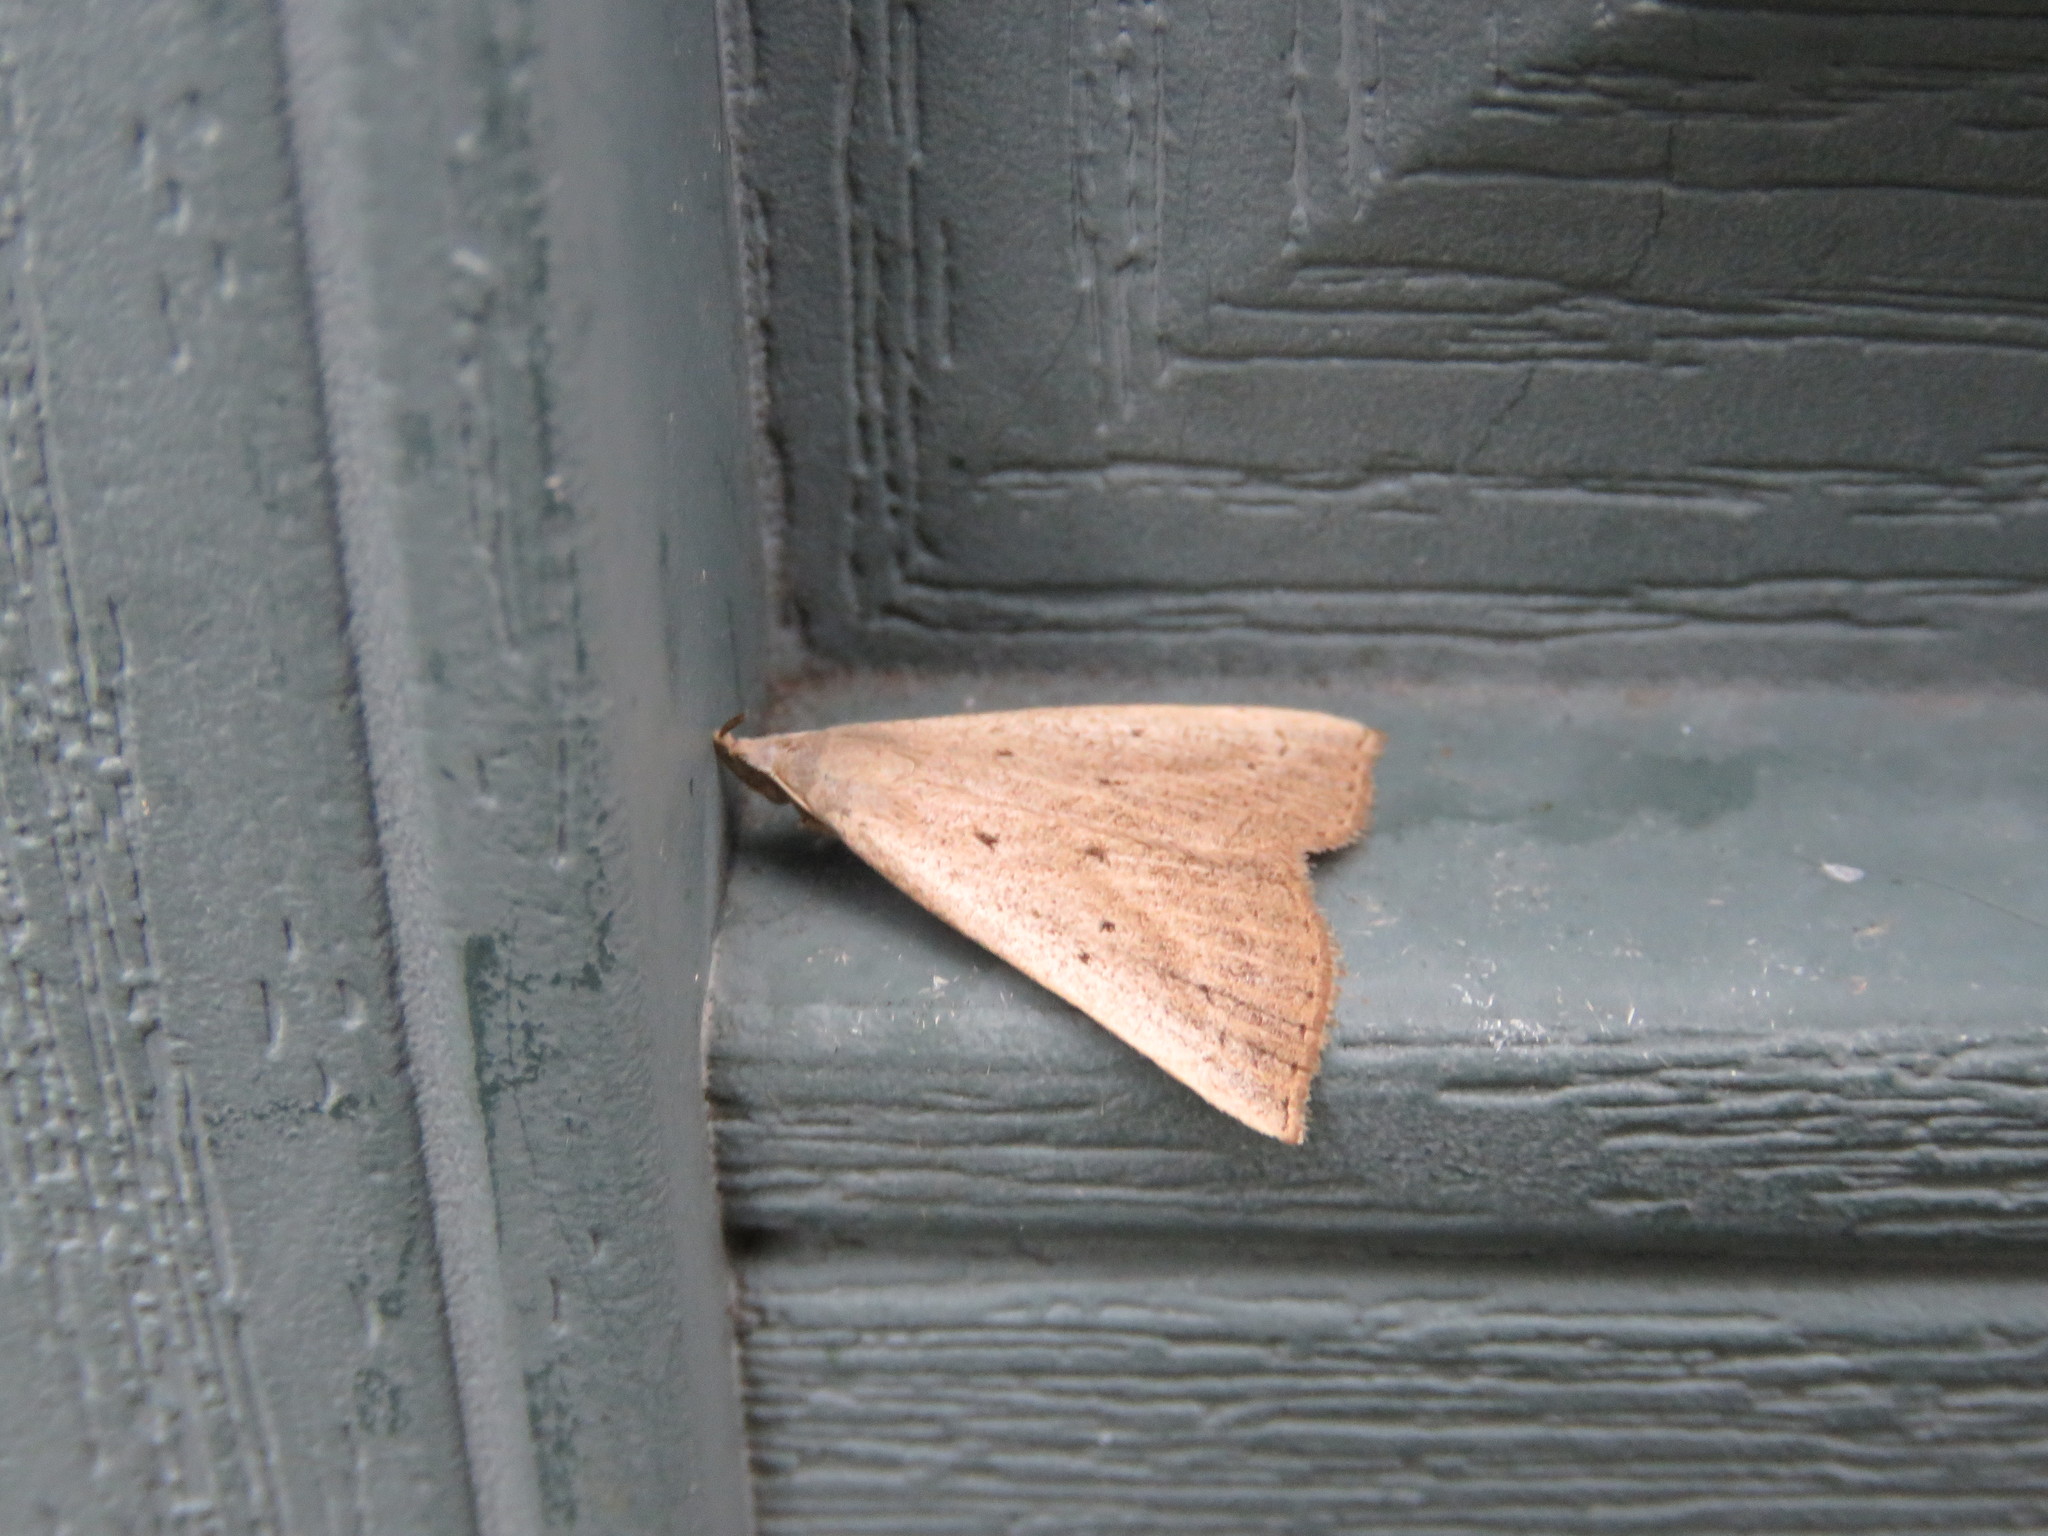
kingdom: Animalia
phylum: Arthropoda
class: Insecta
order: Lepidoptera
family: Erebidae
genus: Macrochilo
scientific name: Macrochilo louisiana
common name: Louisiana macrochilo
